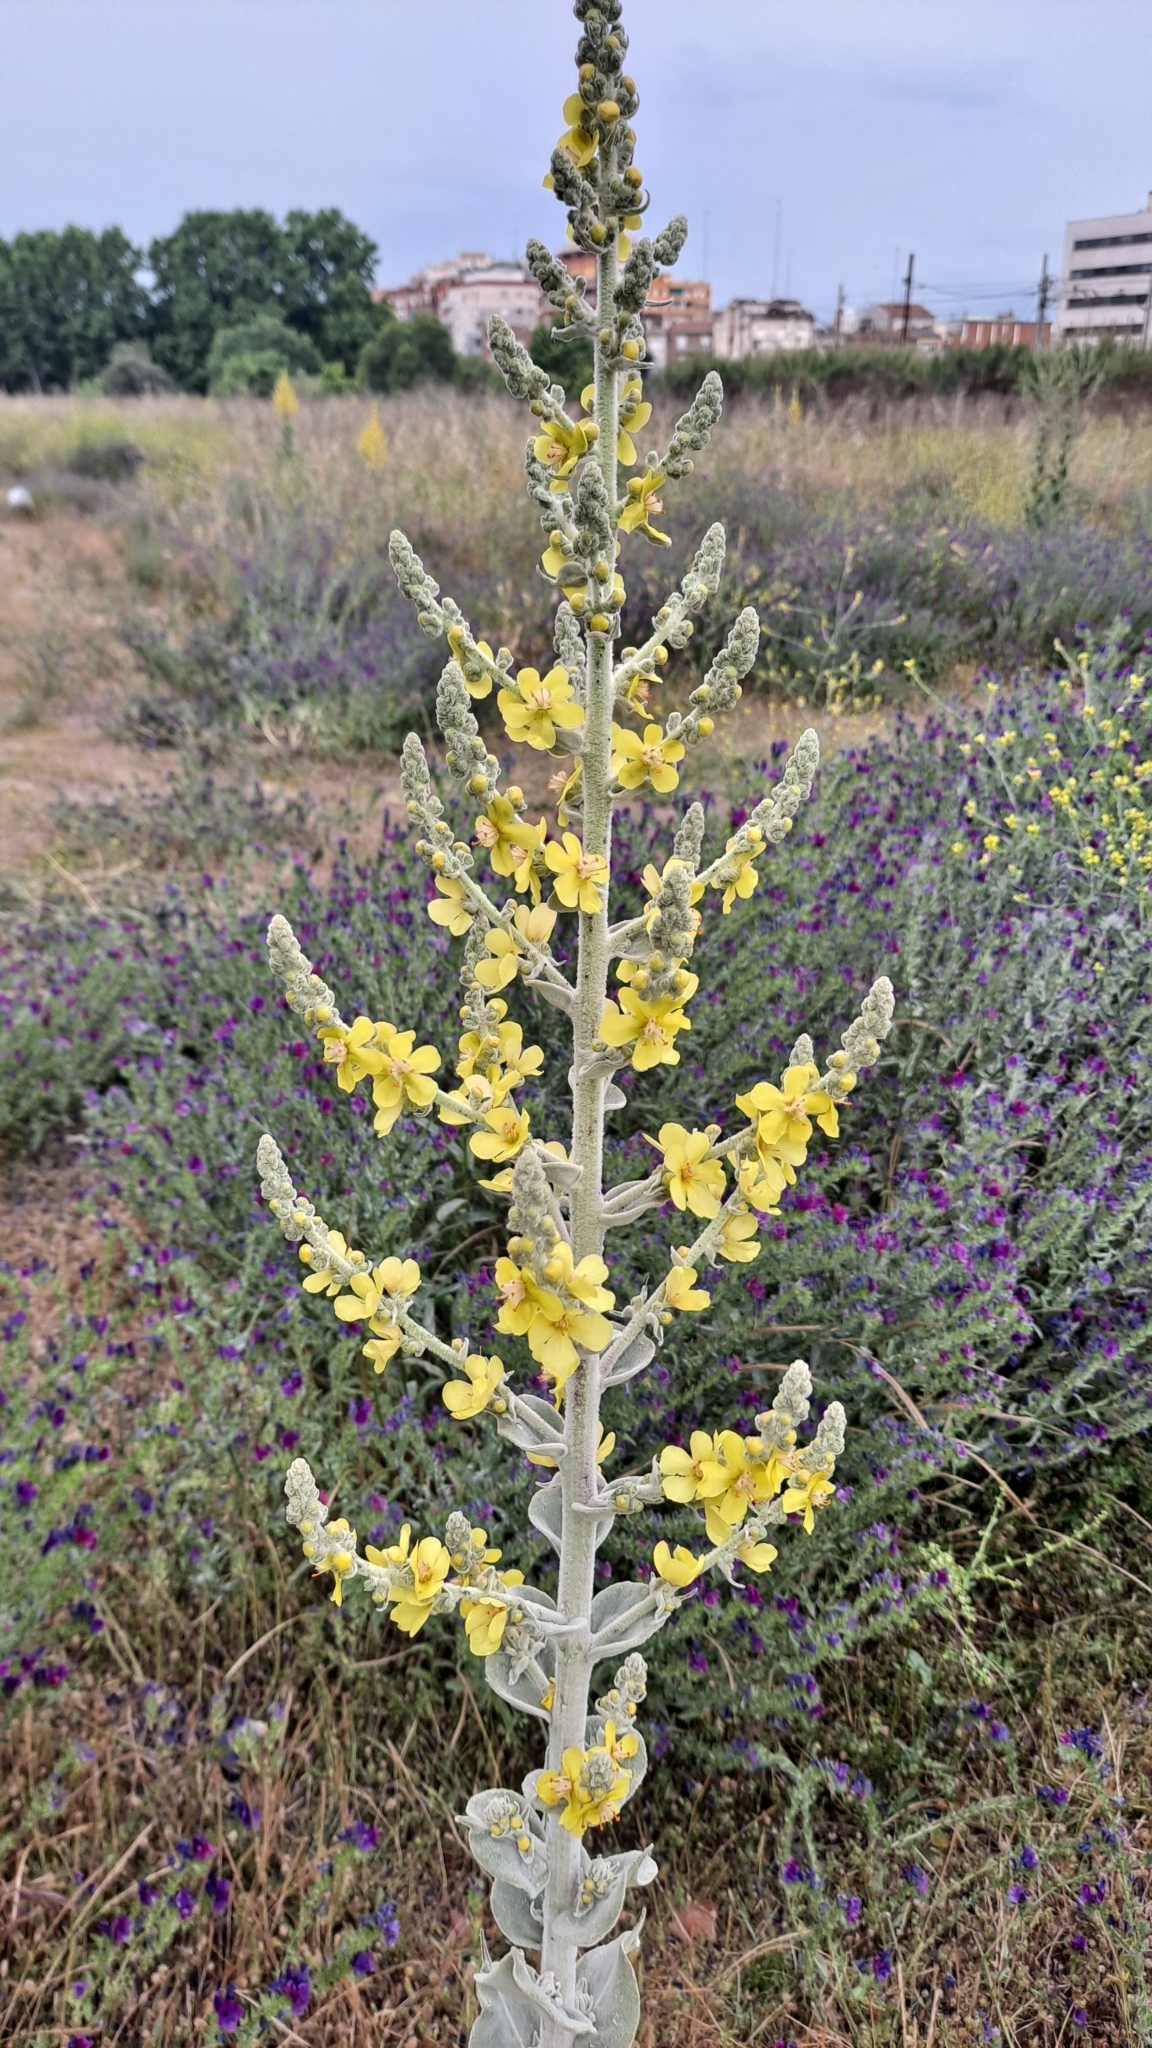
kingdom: Plantae
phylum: Tracheophyta
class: Magnoliopsida
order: Lamiales
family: Scrophulariaceae
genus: Verbascum
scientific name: Verbascum pulverulentum
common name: Broad-leaf mullein
